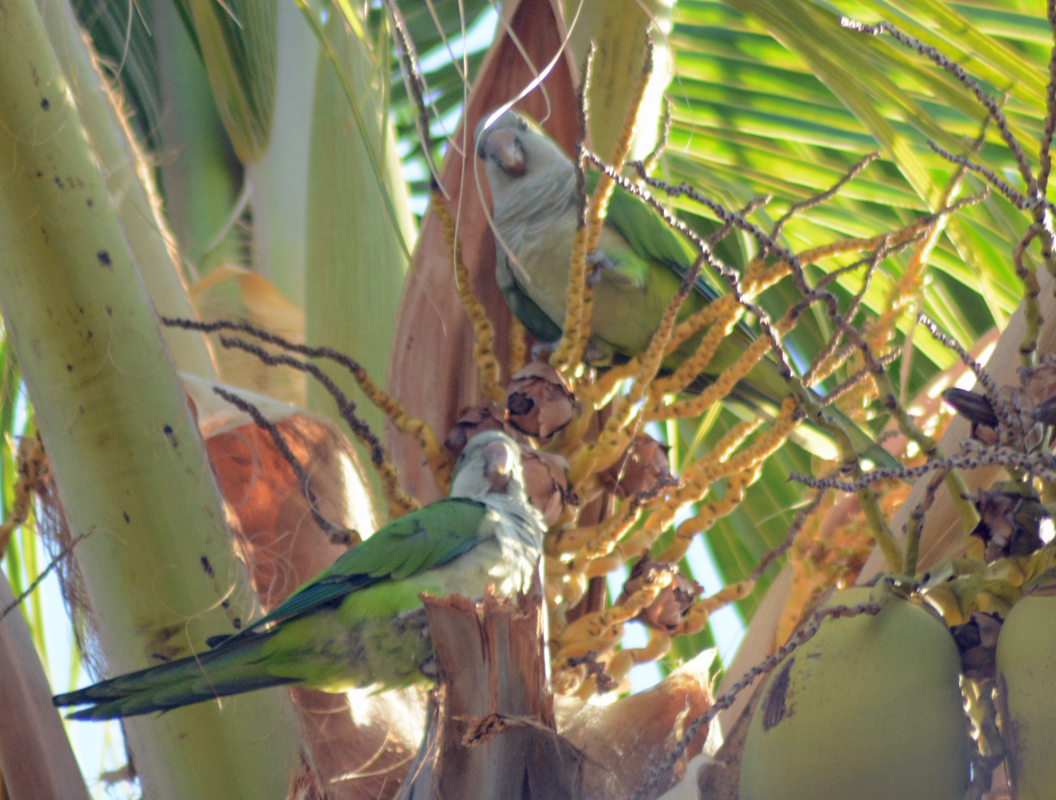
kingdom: Animalia
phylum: Chordata
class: Aves
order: Psittaciformes
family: Psittacidae
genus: Myiopsitta
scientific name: Myiopsitta monachus
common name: Monk parakeet
